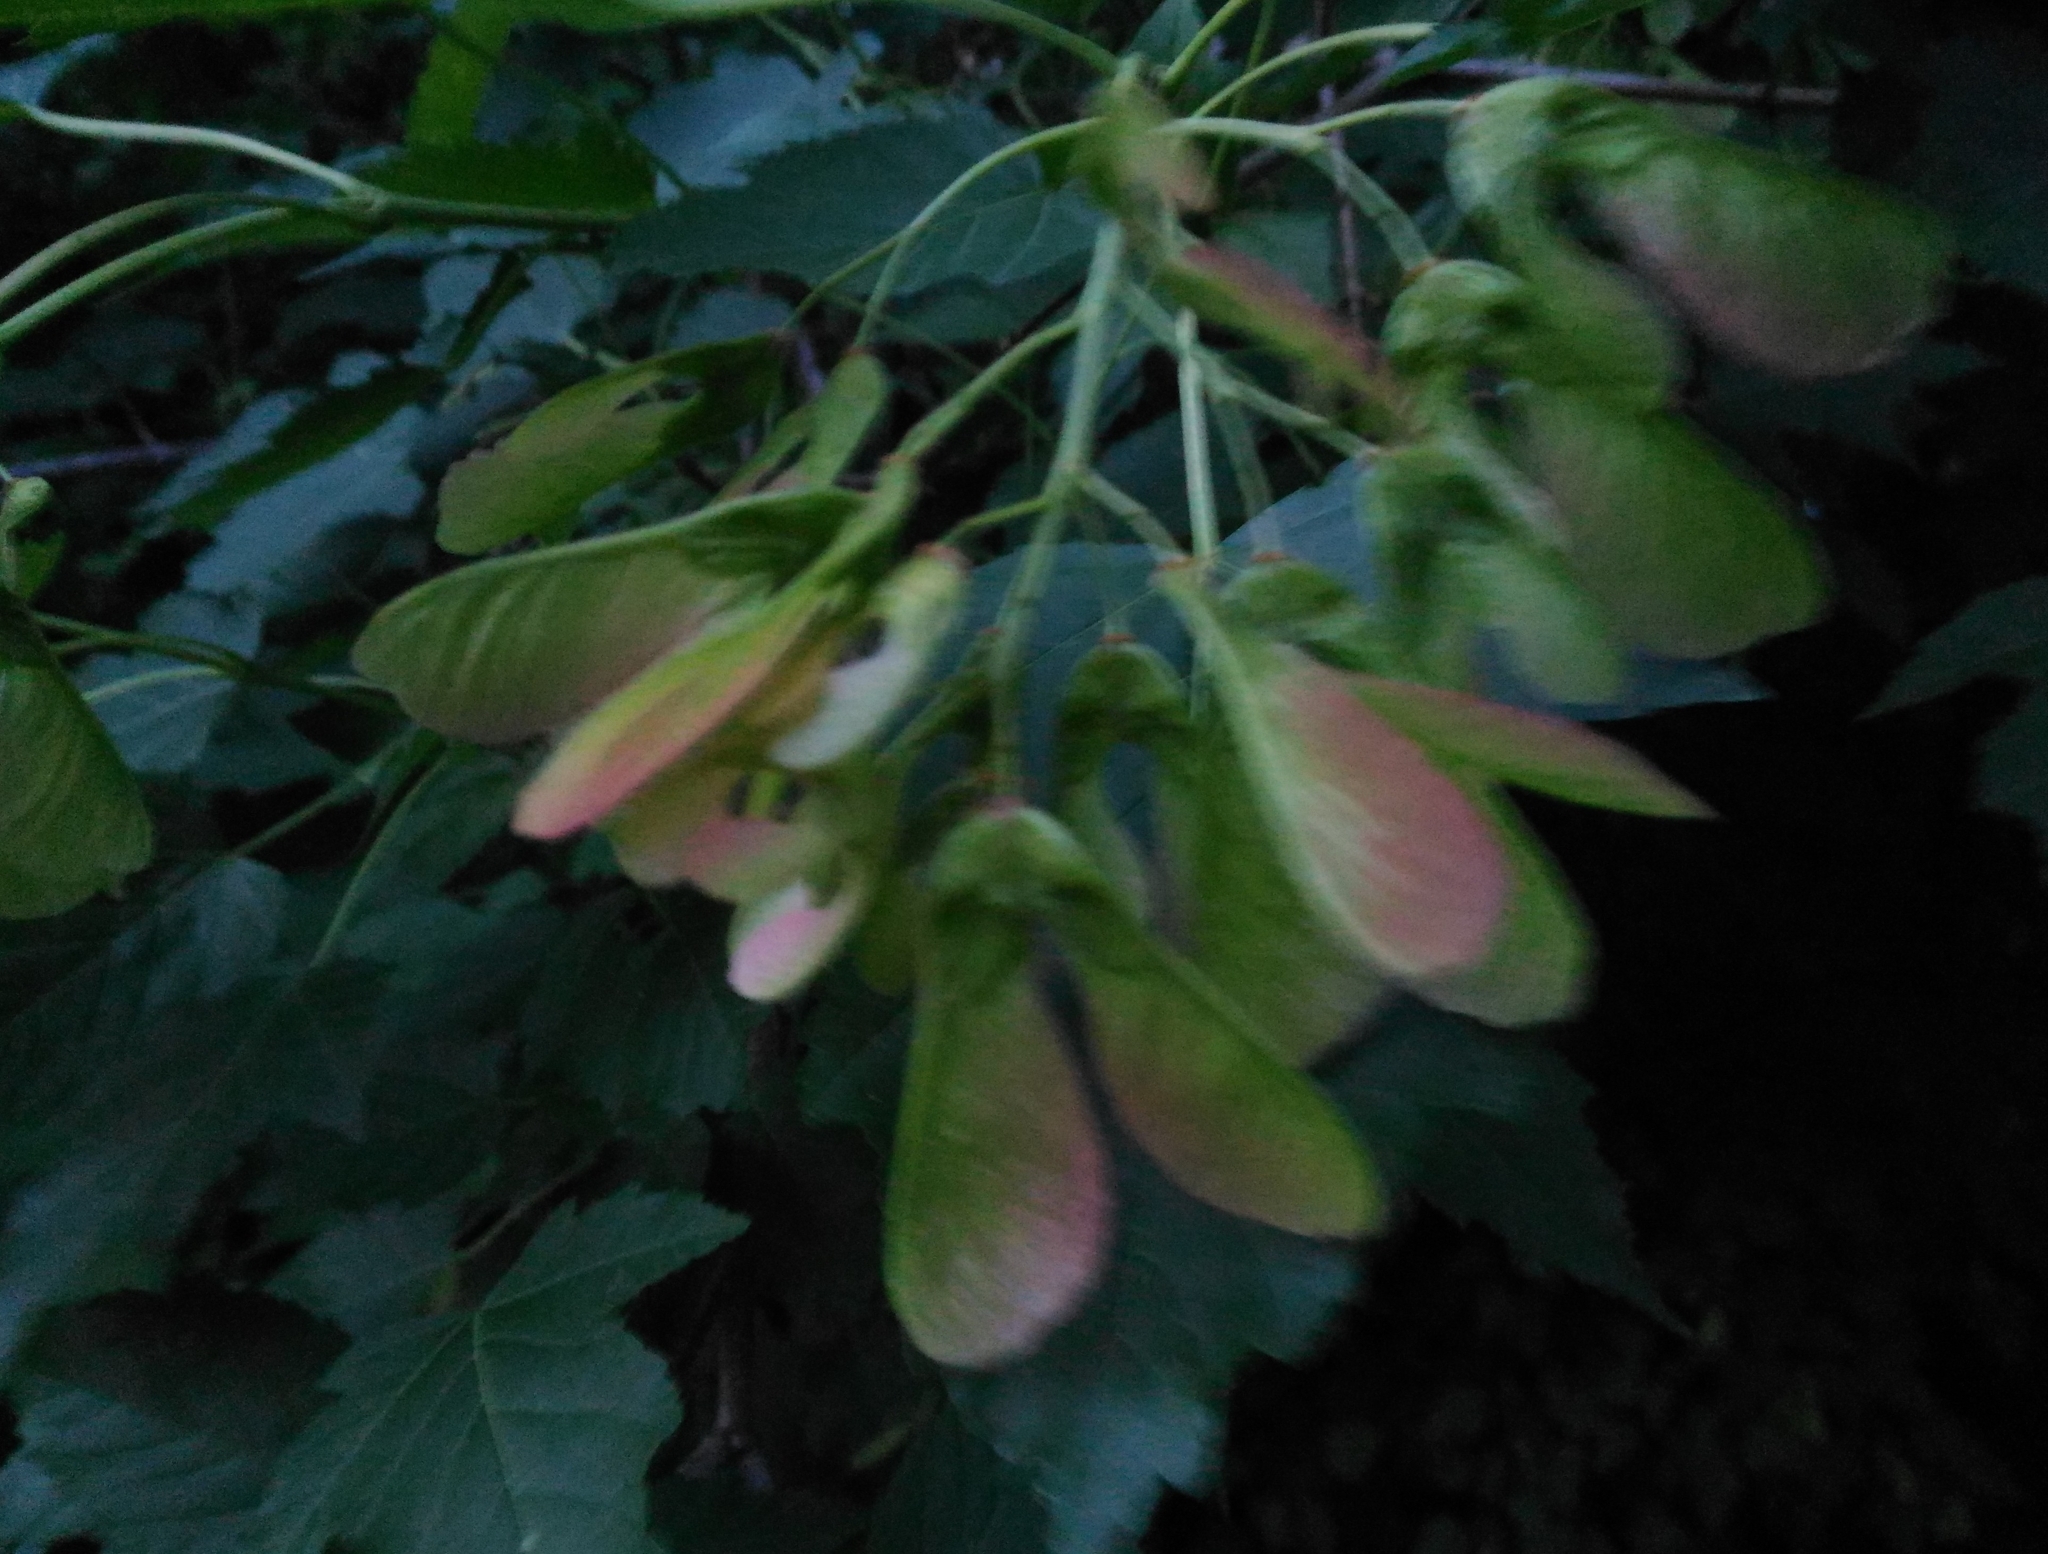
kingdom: Plantae
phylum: Tracheophyta
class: Magnoliopsida
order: Sapindales
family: Sapindaceae
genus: Acer
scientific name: Acer tataricum
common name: Tartar maple
